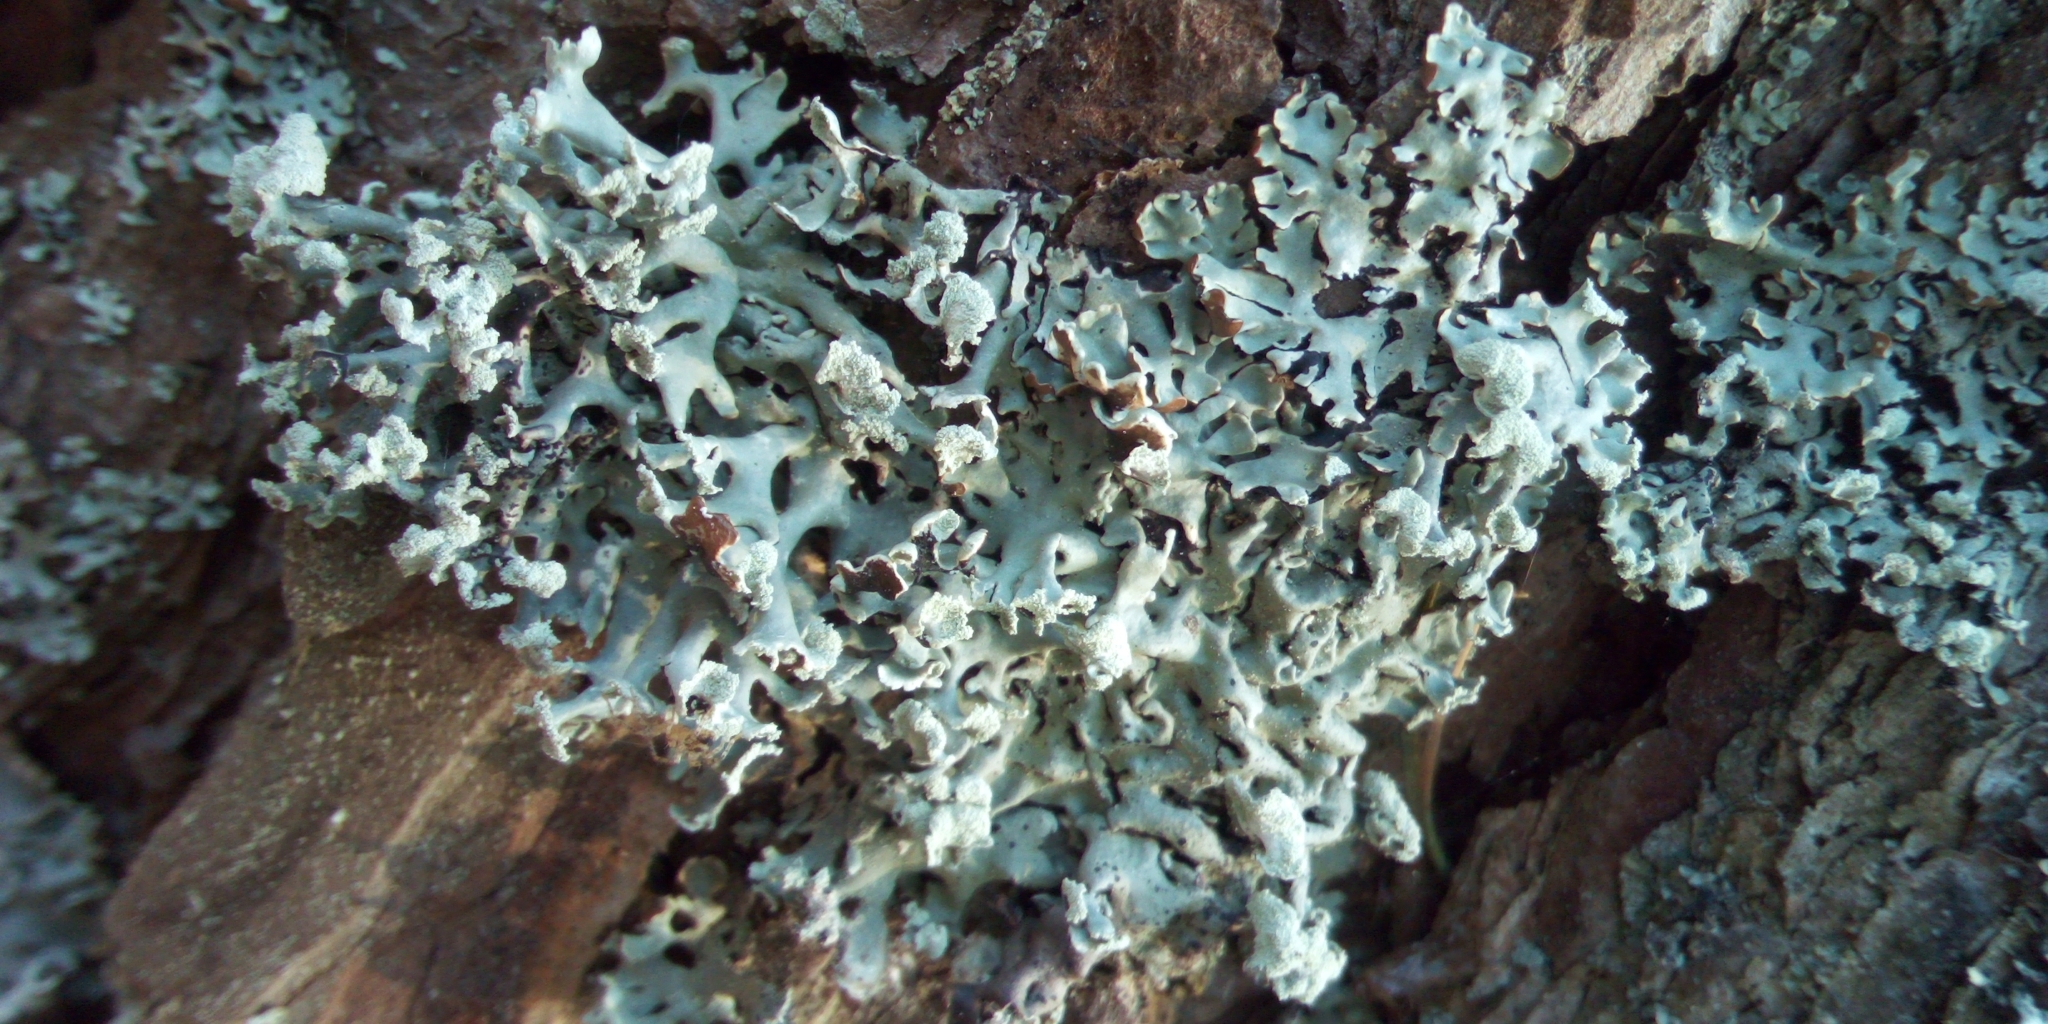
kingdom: Fungi
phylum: Ascomycota
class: Lecanoromycetes
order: Lecanorales
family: Parmeliaceae
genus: Hypogymnia
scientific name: Hypogymnia physodes
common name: Dark crottle
